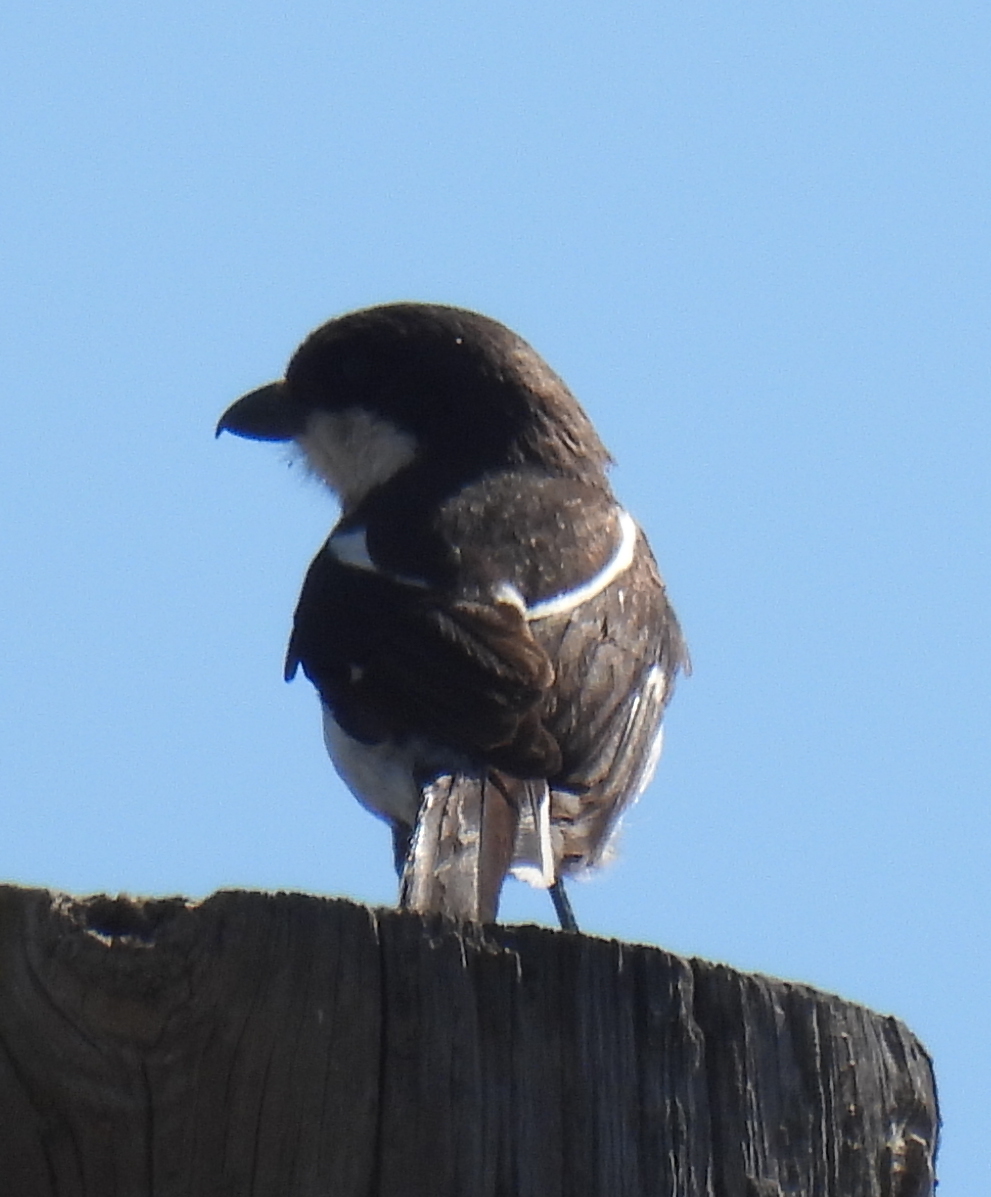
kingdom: Animalia
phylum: Chordata
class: Aves
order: Passeriformes
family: Laniidae
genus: Lanius
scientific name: Lanius collaris
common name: Southern fiscal
